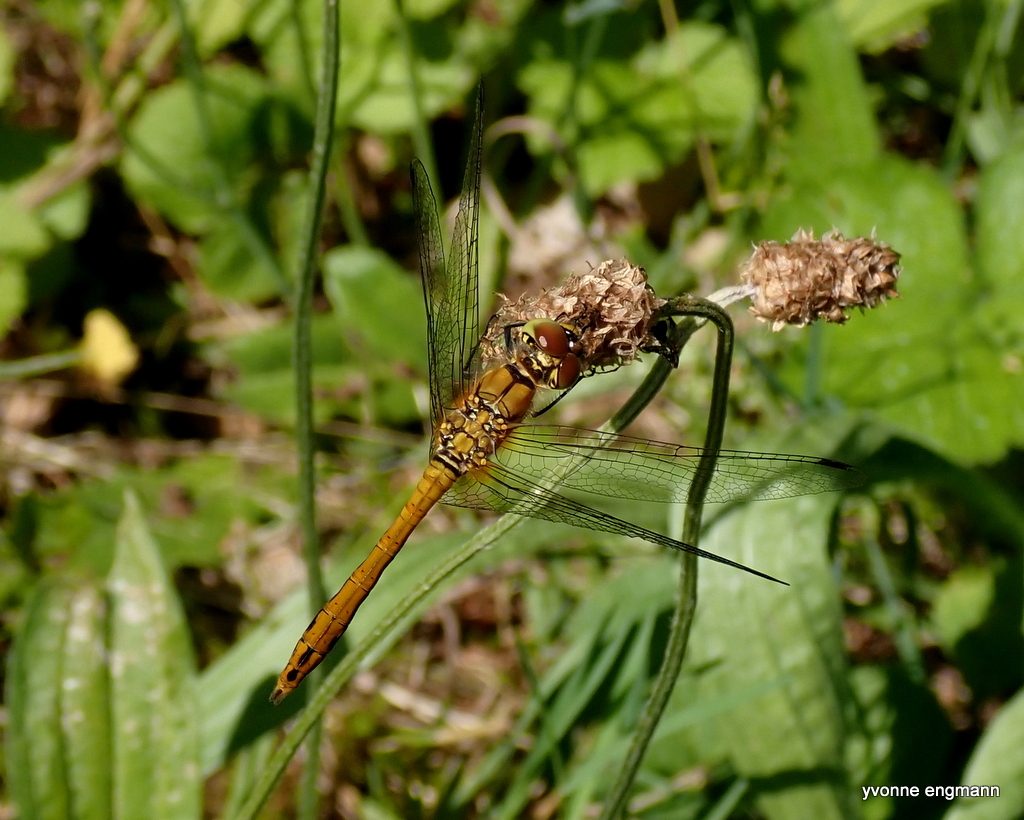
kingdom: Animalia
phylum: Arthropoda
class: Insecta
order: Odonata
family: Libellulidae
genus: Sympetrum
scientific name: Sympetrum sanguineum
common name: Ruddy darter
